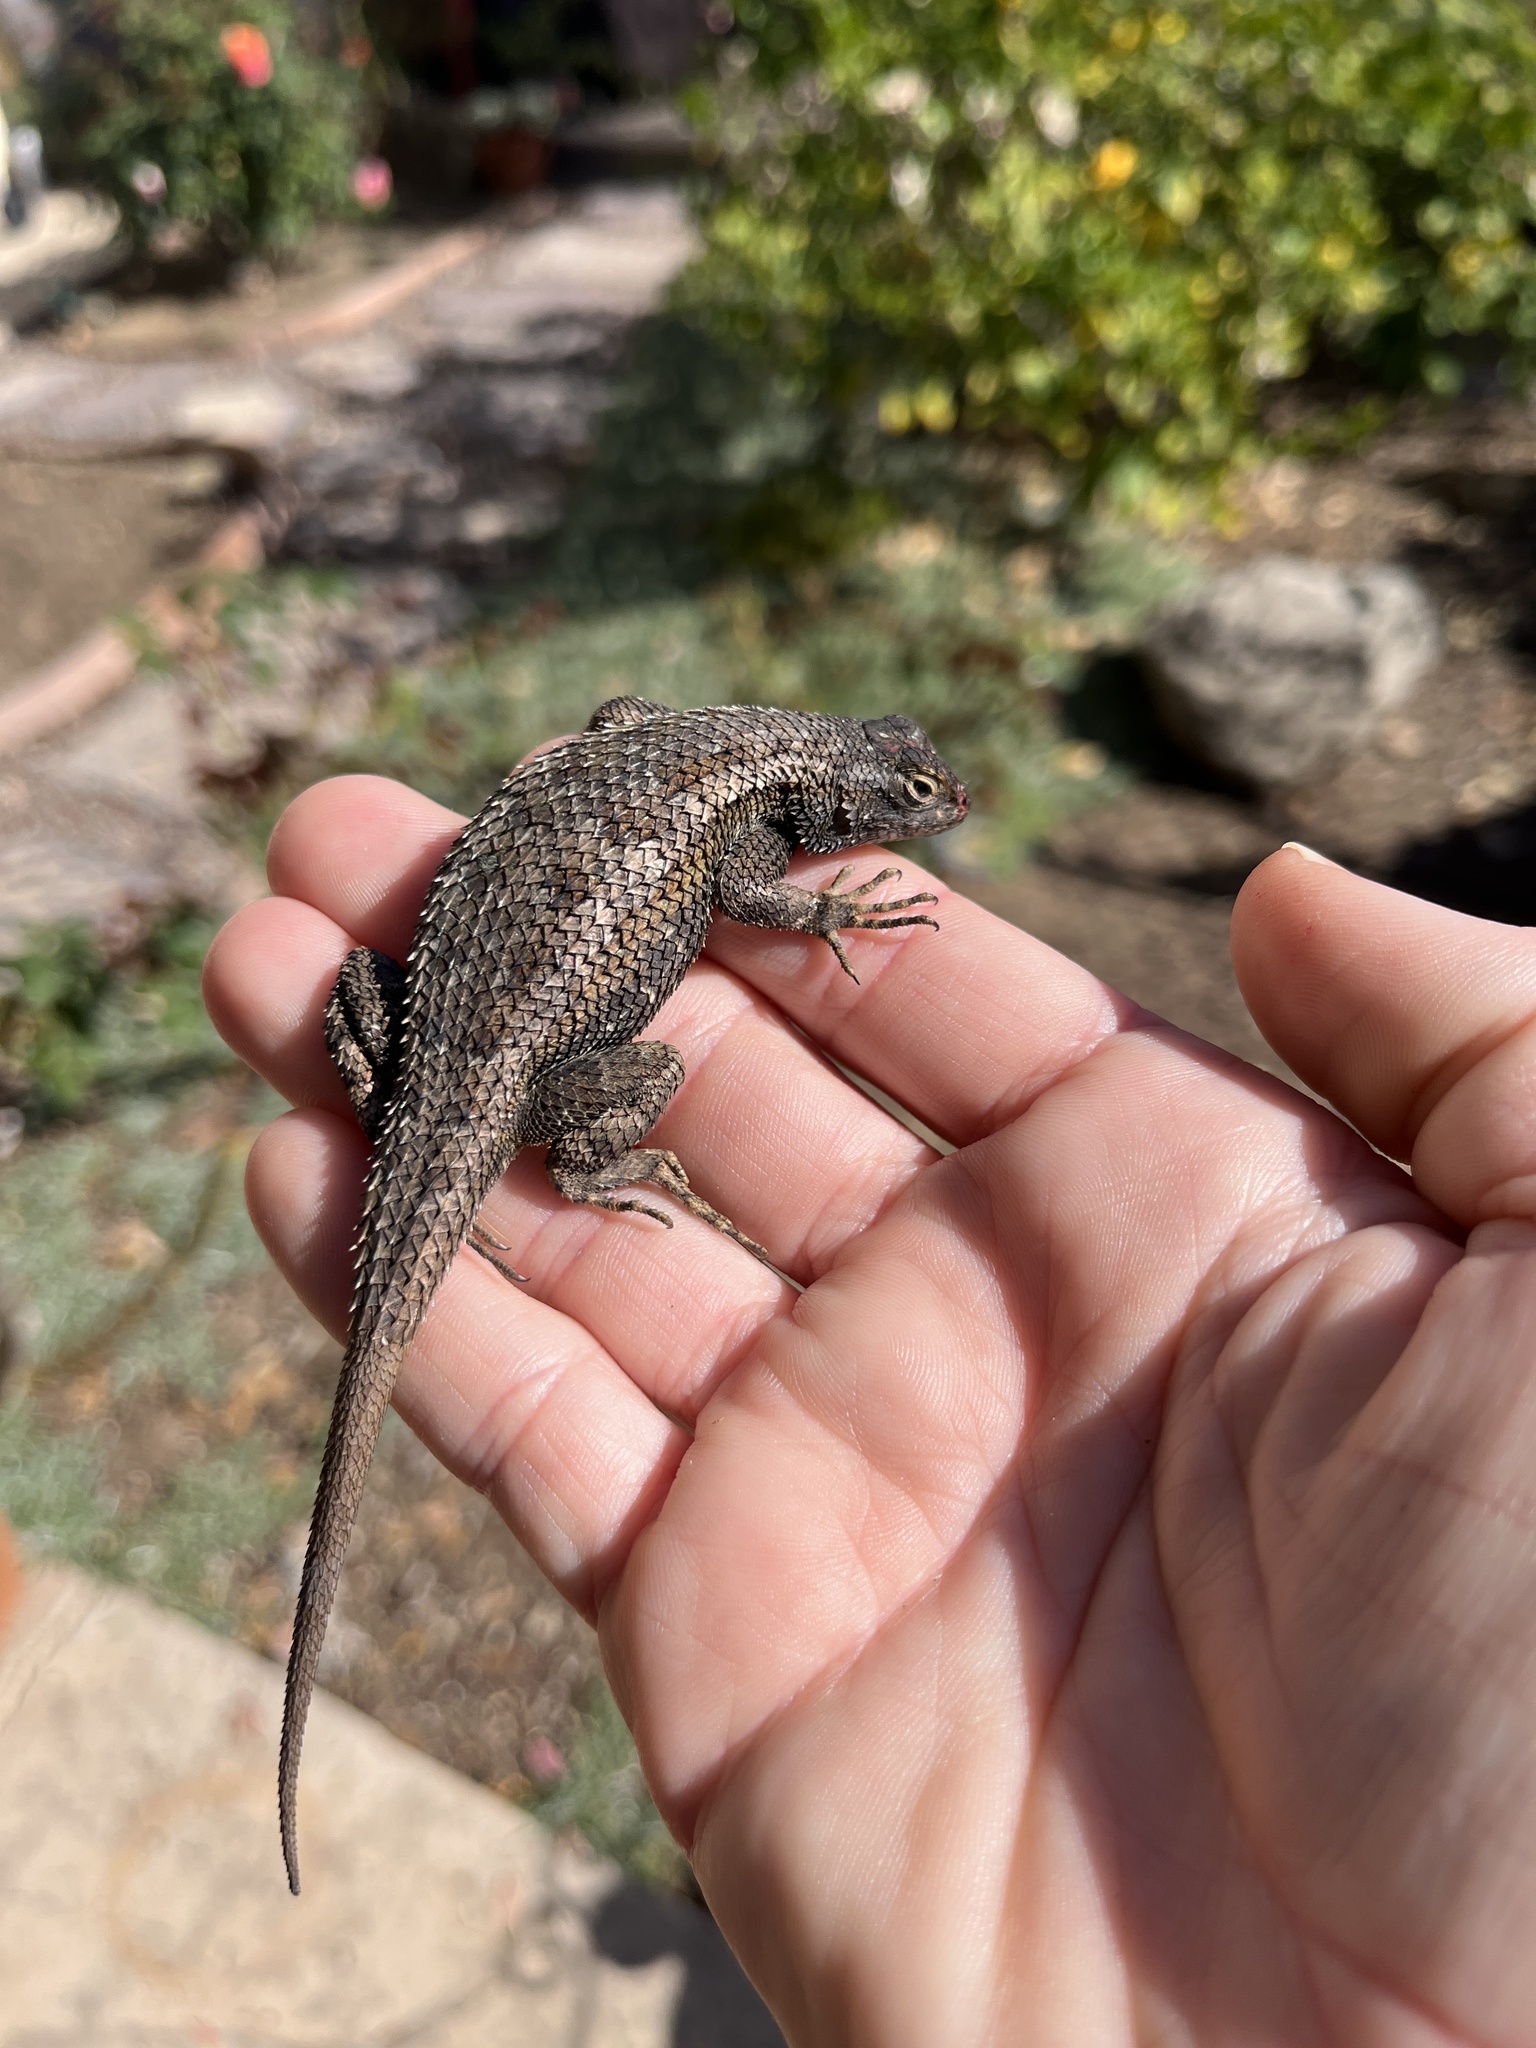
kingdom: Animalia
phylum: Chordata
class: Squamata
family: Phrynosomatidae
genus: Sceloporus
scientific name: Sceloporus occidentalis
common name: Western fence lizard
